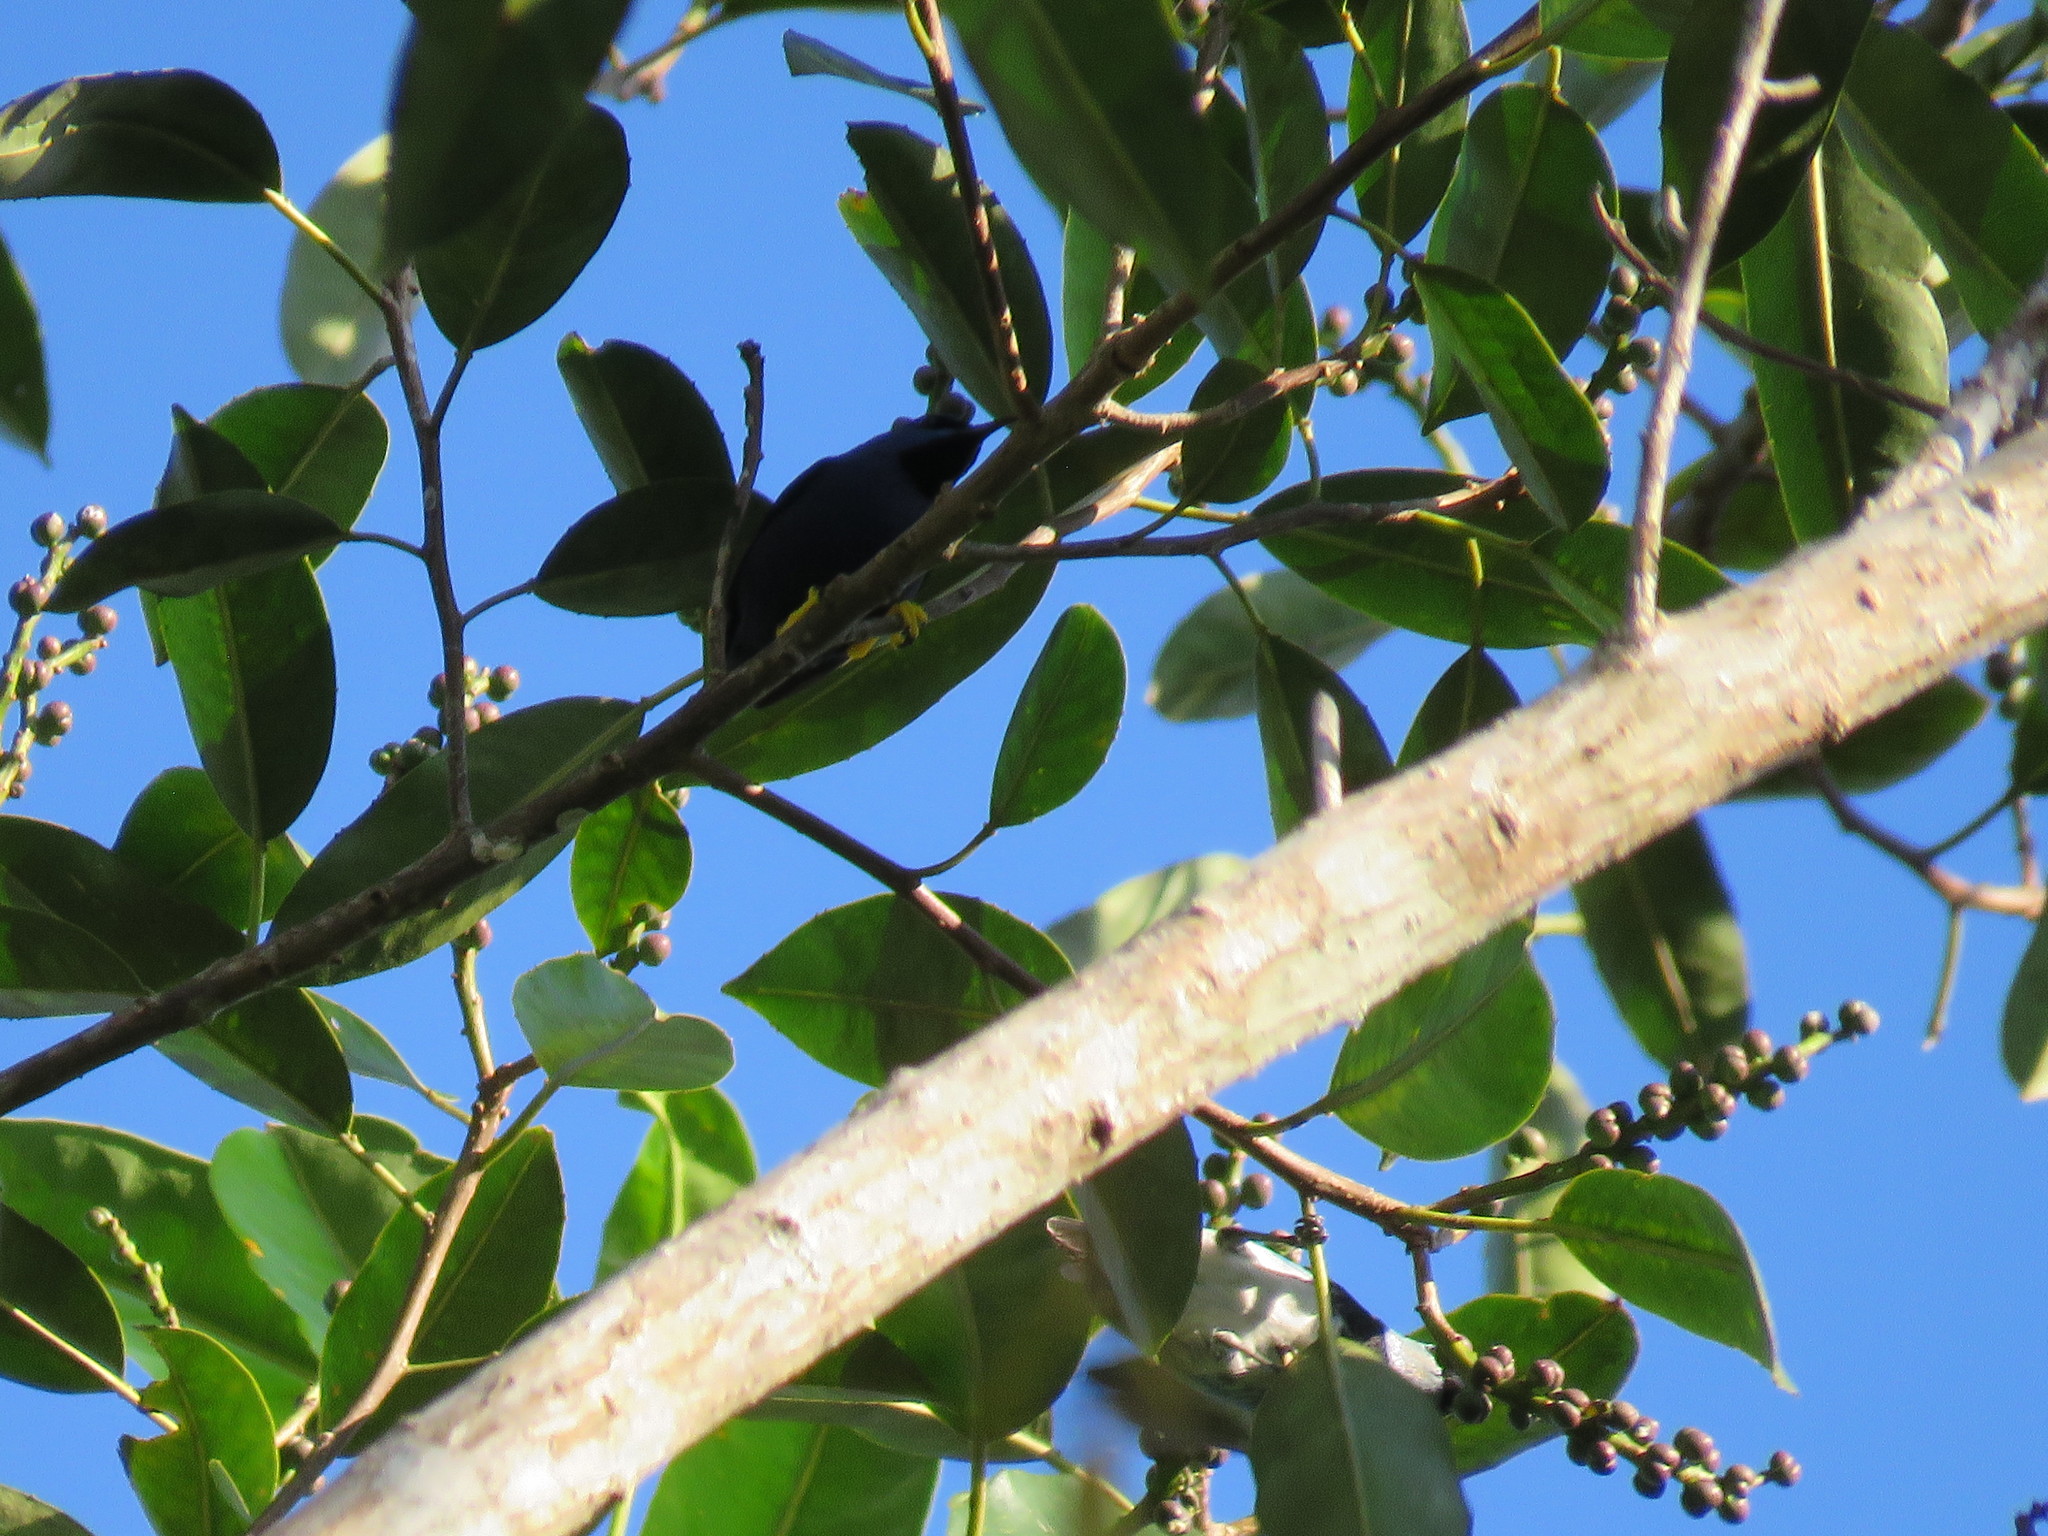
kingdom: Animalia
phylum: Chordata
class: Aves
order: Passeriformes
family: Thraupidae
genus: Cyanerpes
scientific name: Cyanerpes caeruleus
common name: Purple honeycreeper
